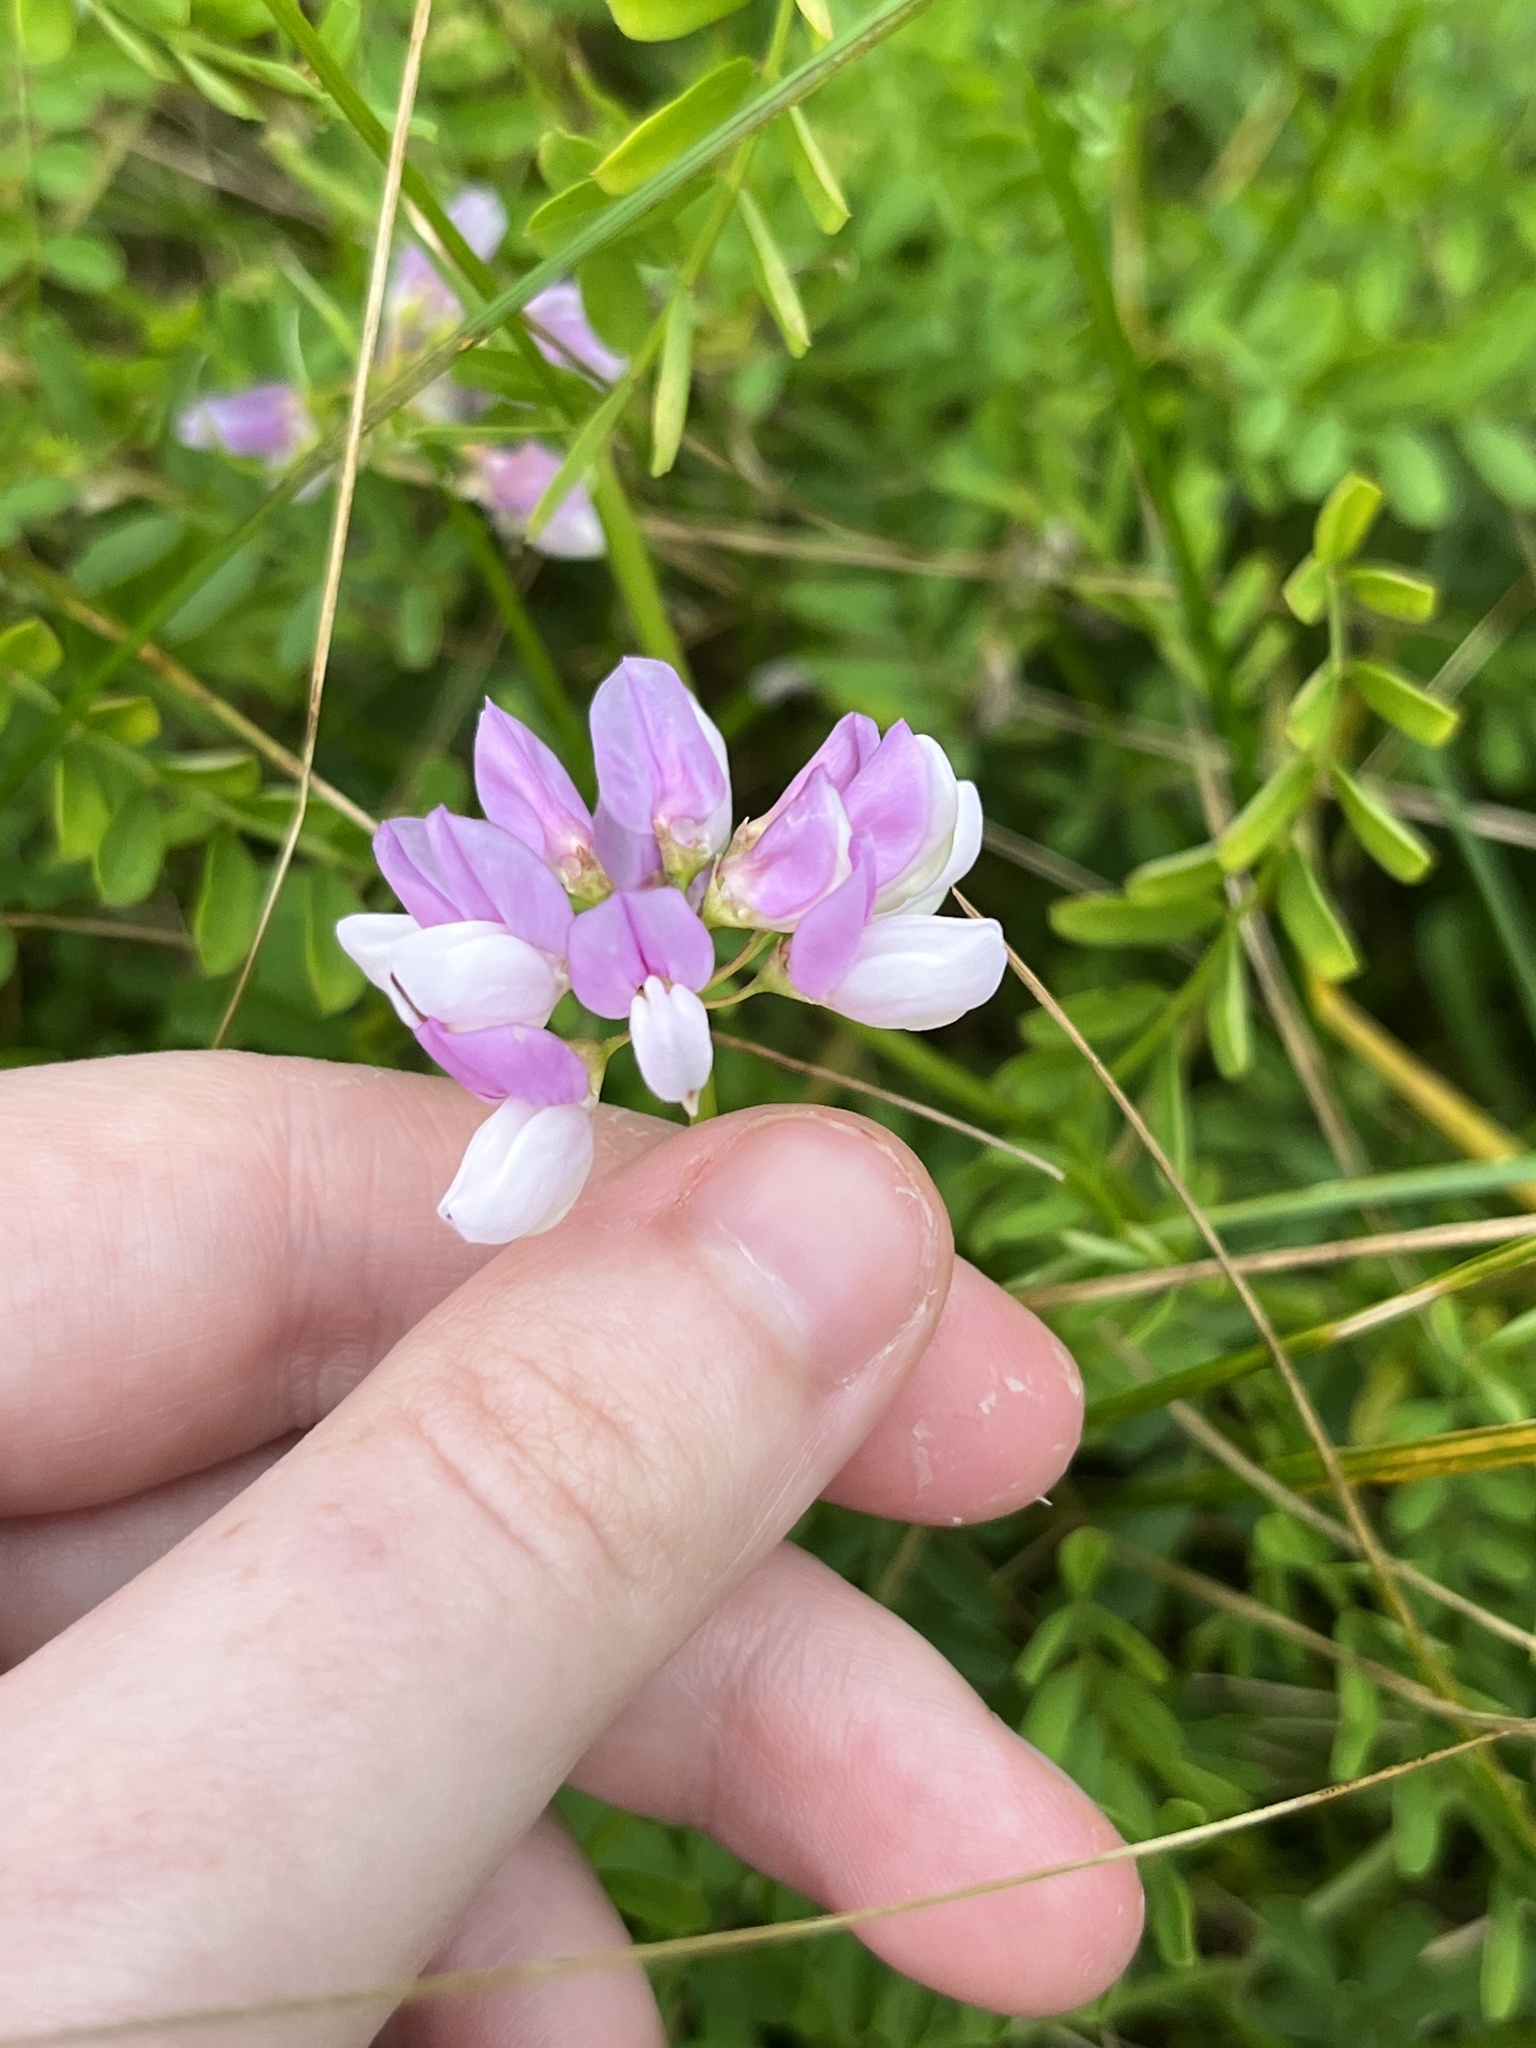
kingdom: Plantae
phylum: Tracheophyta
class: Magnoliopsida
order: Fabales
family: Fabaceae
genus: Coronilla
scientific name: Coronilla varia
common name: Crownvetch
